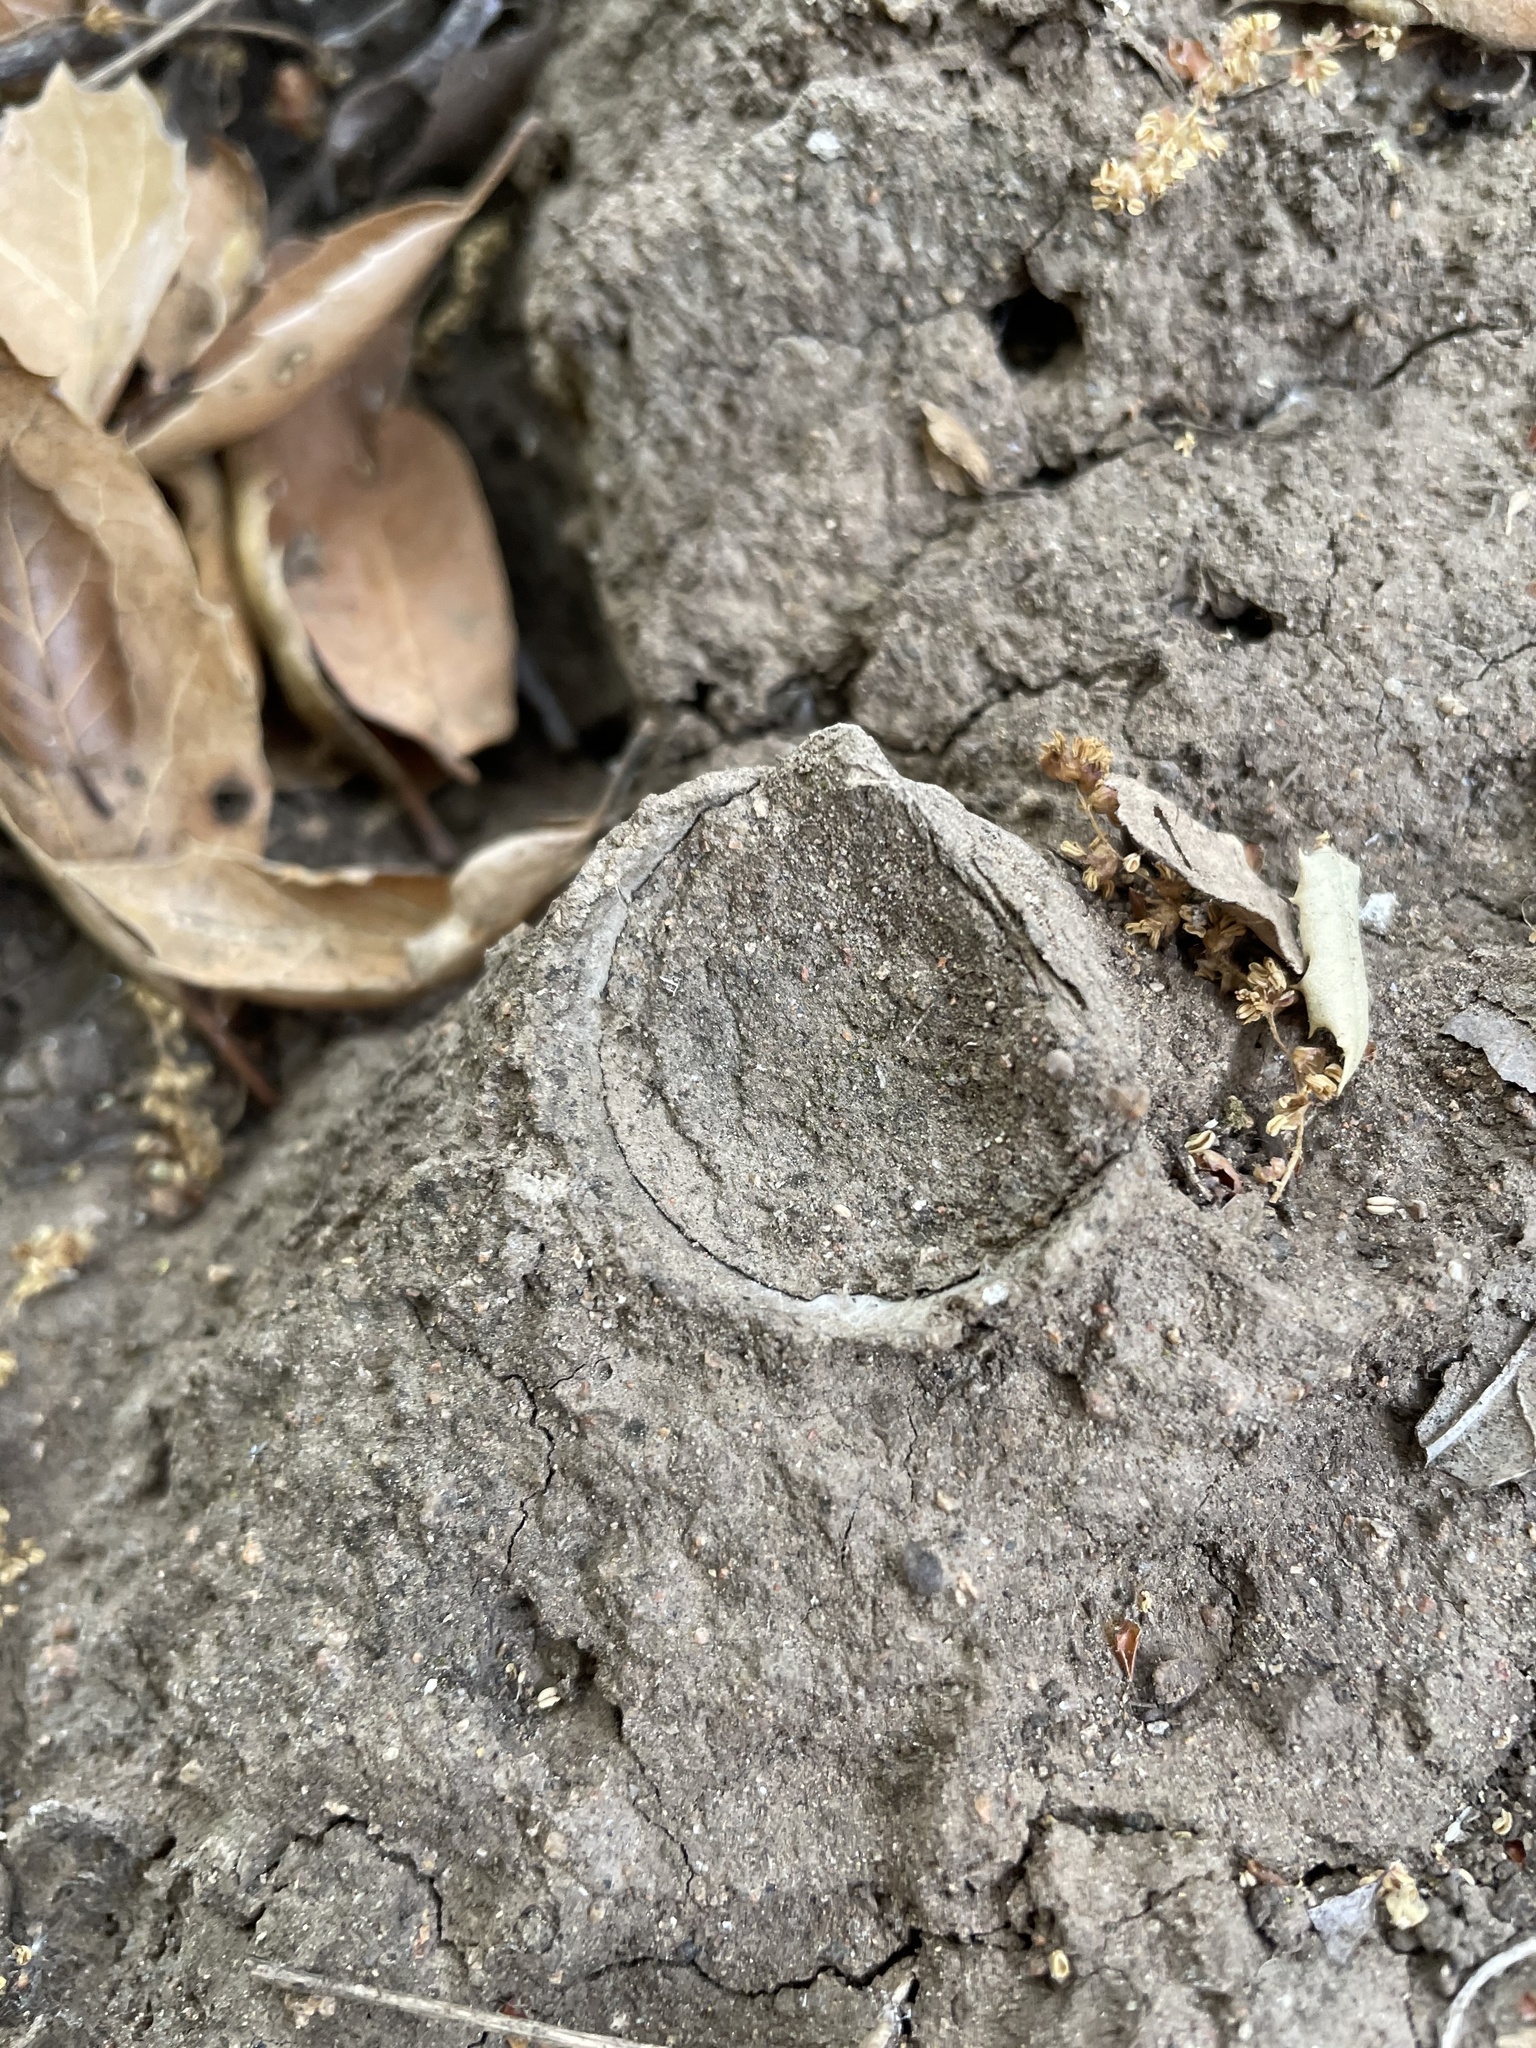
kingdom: Animalia
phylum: Arthropoda
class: Arachnida
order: Araneae
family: Halonoproctidae
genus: Bothriocyrtum
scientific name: Bothriocyrtum californicum
